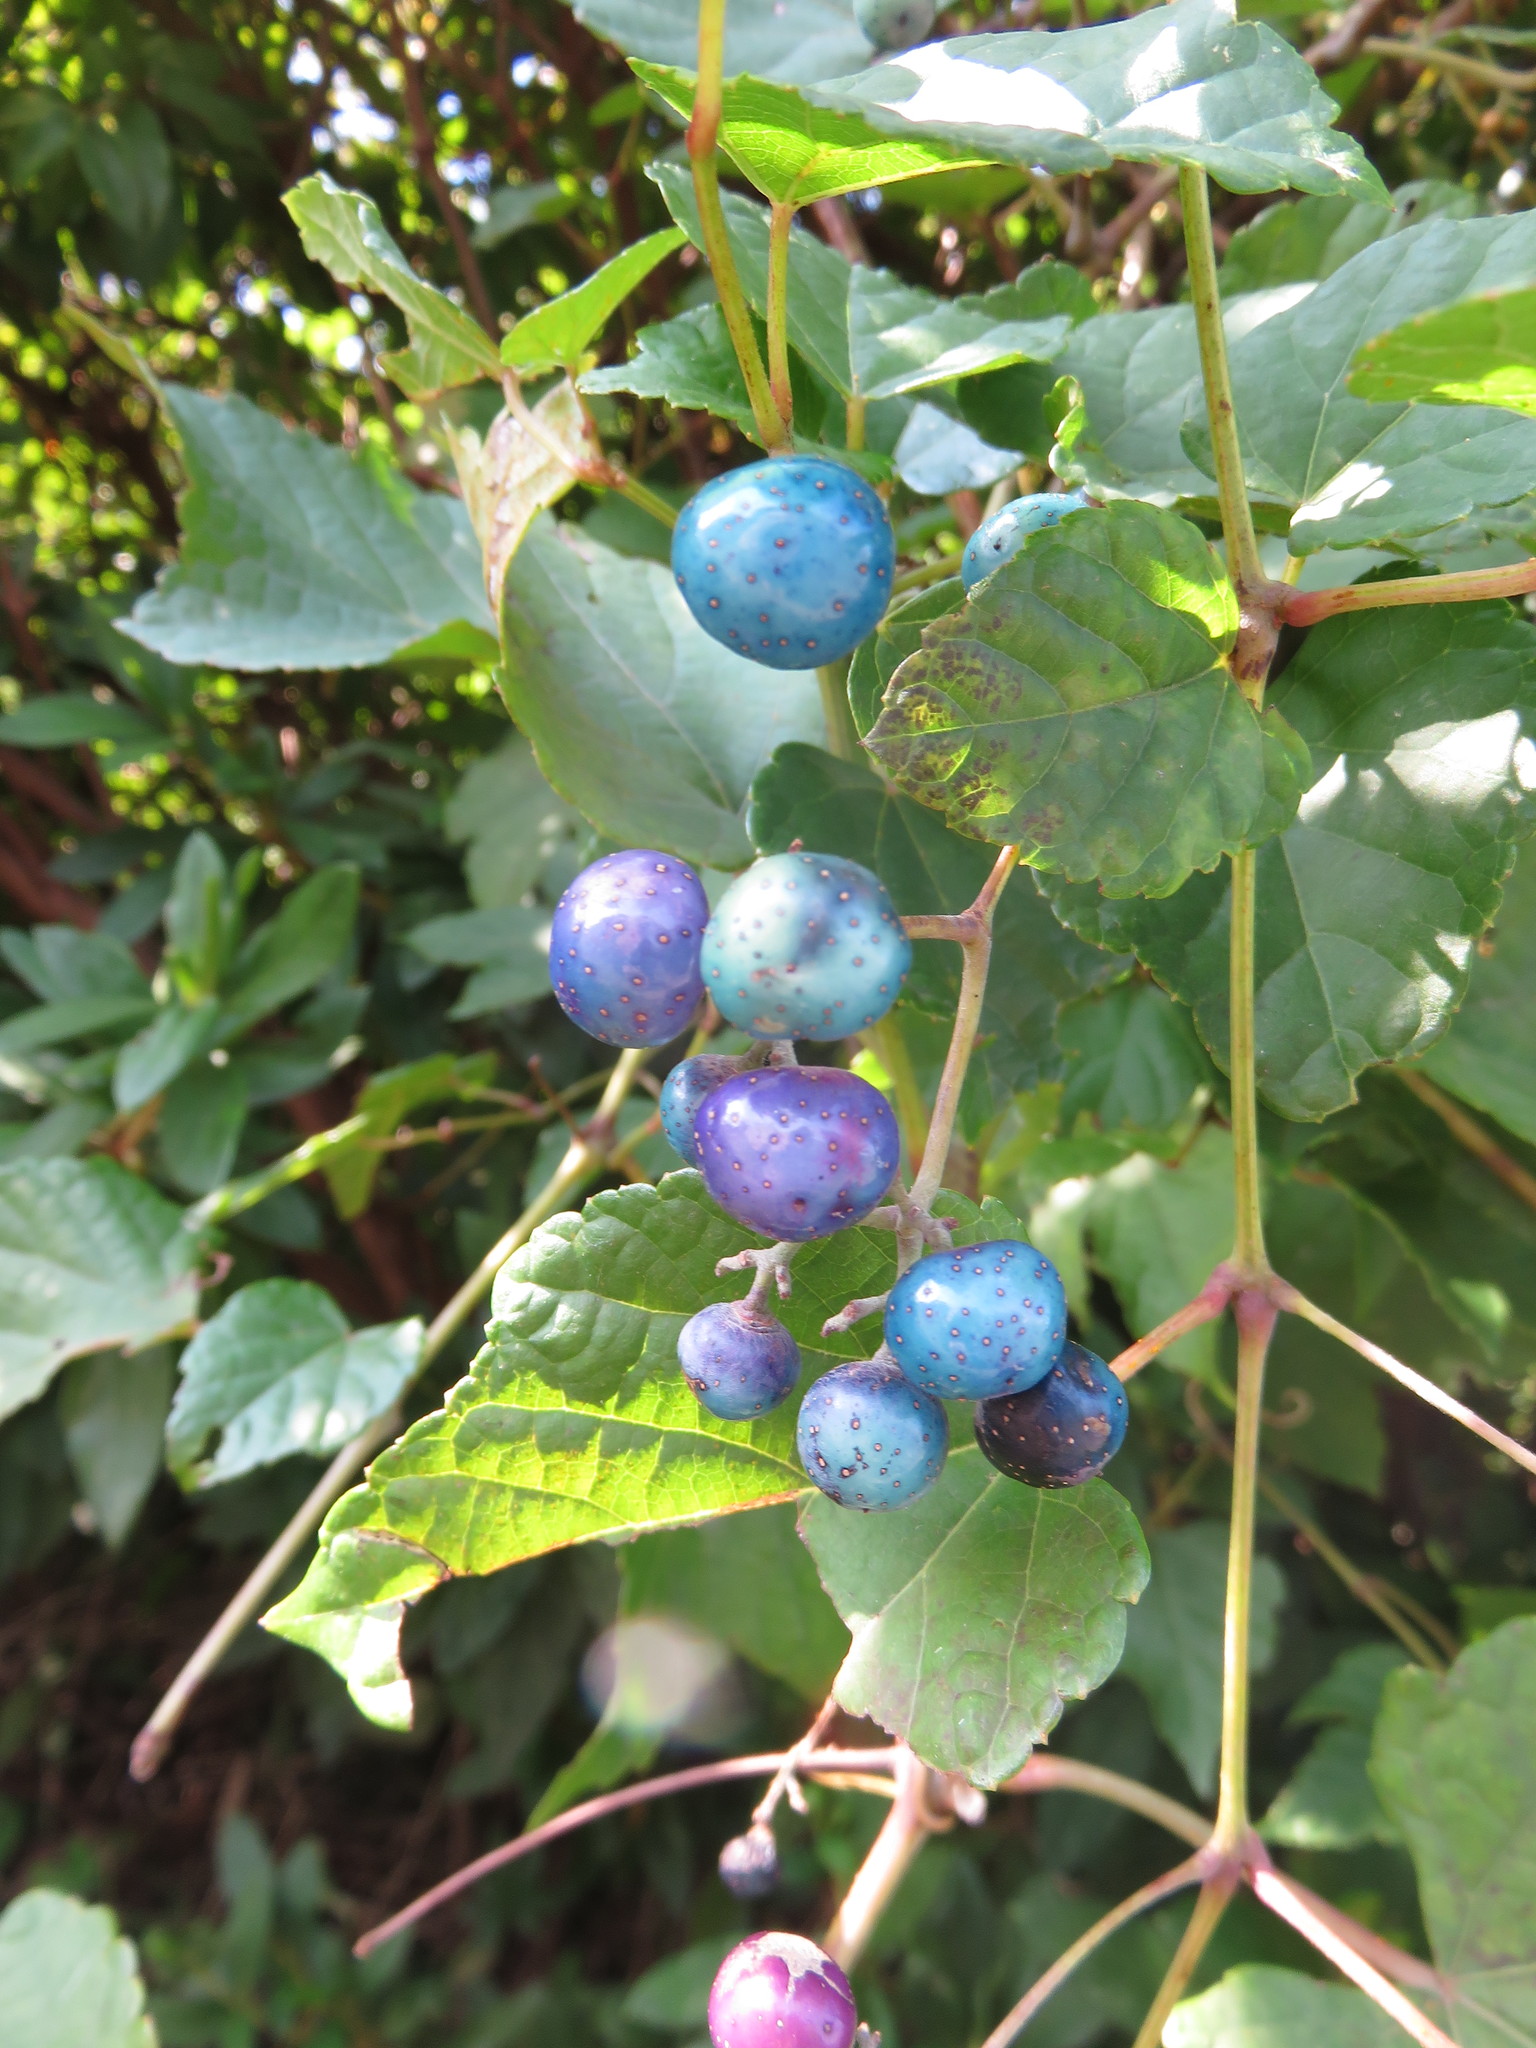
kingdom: Plantae
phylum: Tracheophyta
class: Magnoliopsida
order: Vitales
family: Vitaceae
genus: Ampelopsis
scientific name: Ampelopsis glandulosa
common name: Amur peppervine
